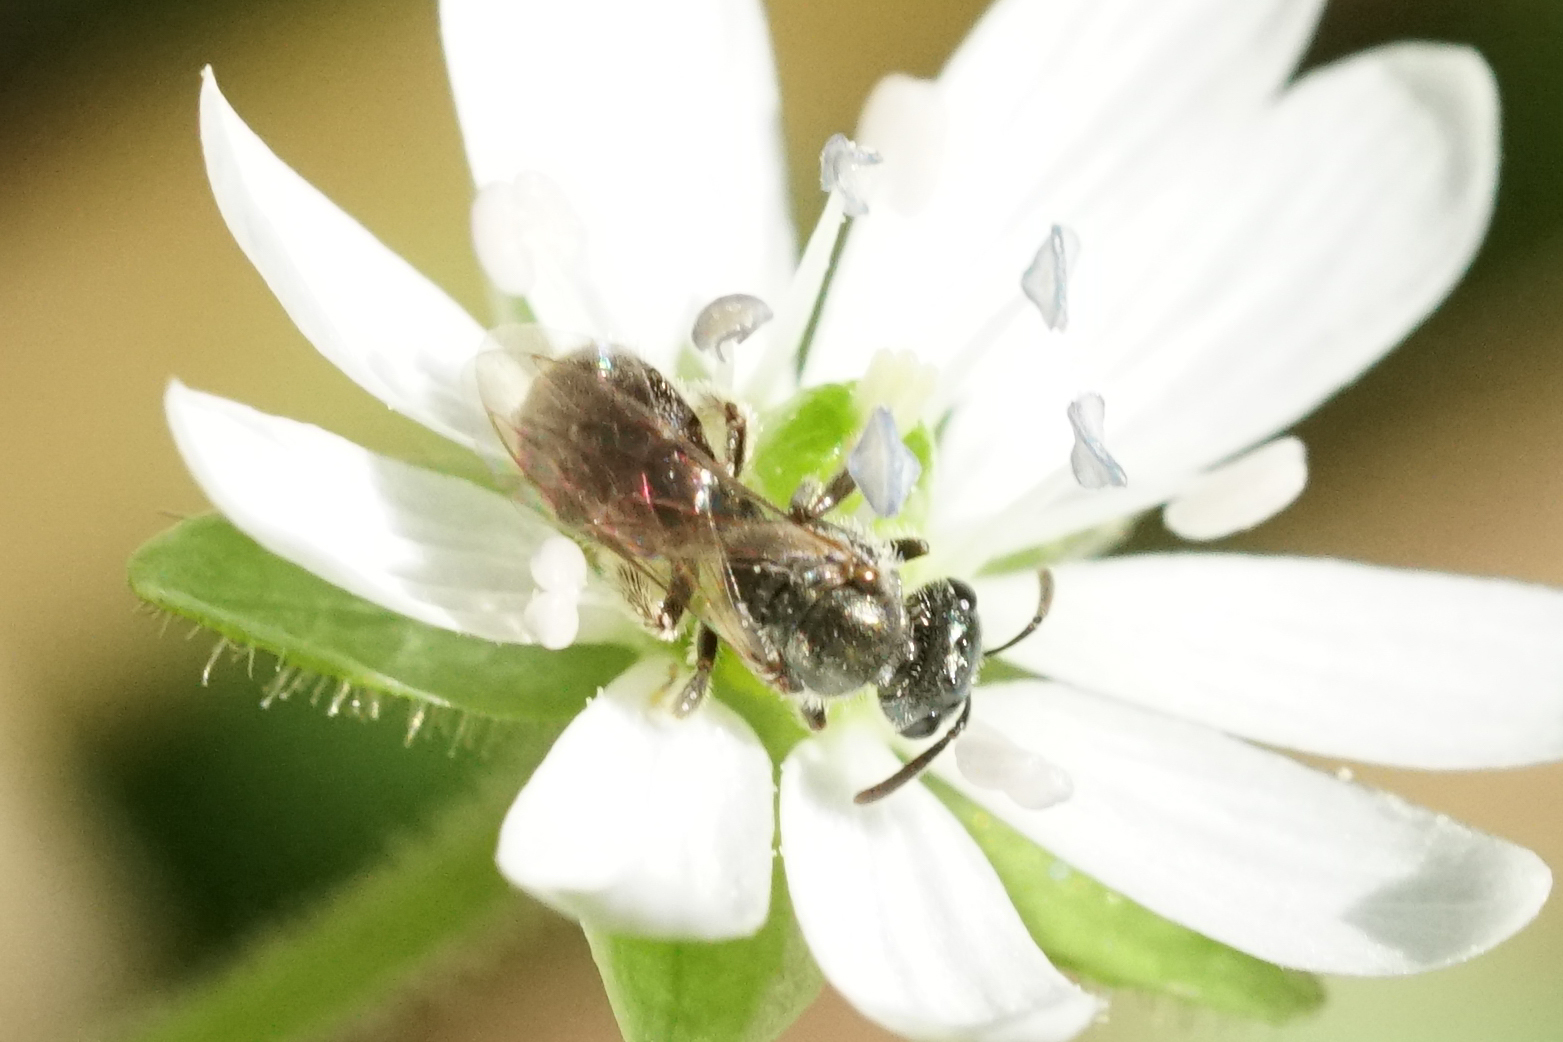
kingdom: Animalia
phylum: Arthropoda
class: Insecta
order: Hymenoptera
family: Halictidae
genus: Dialictus
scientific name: Dialictus
